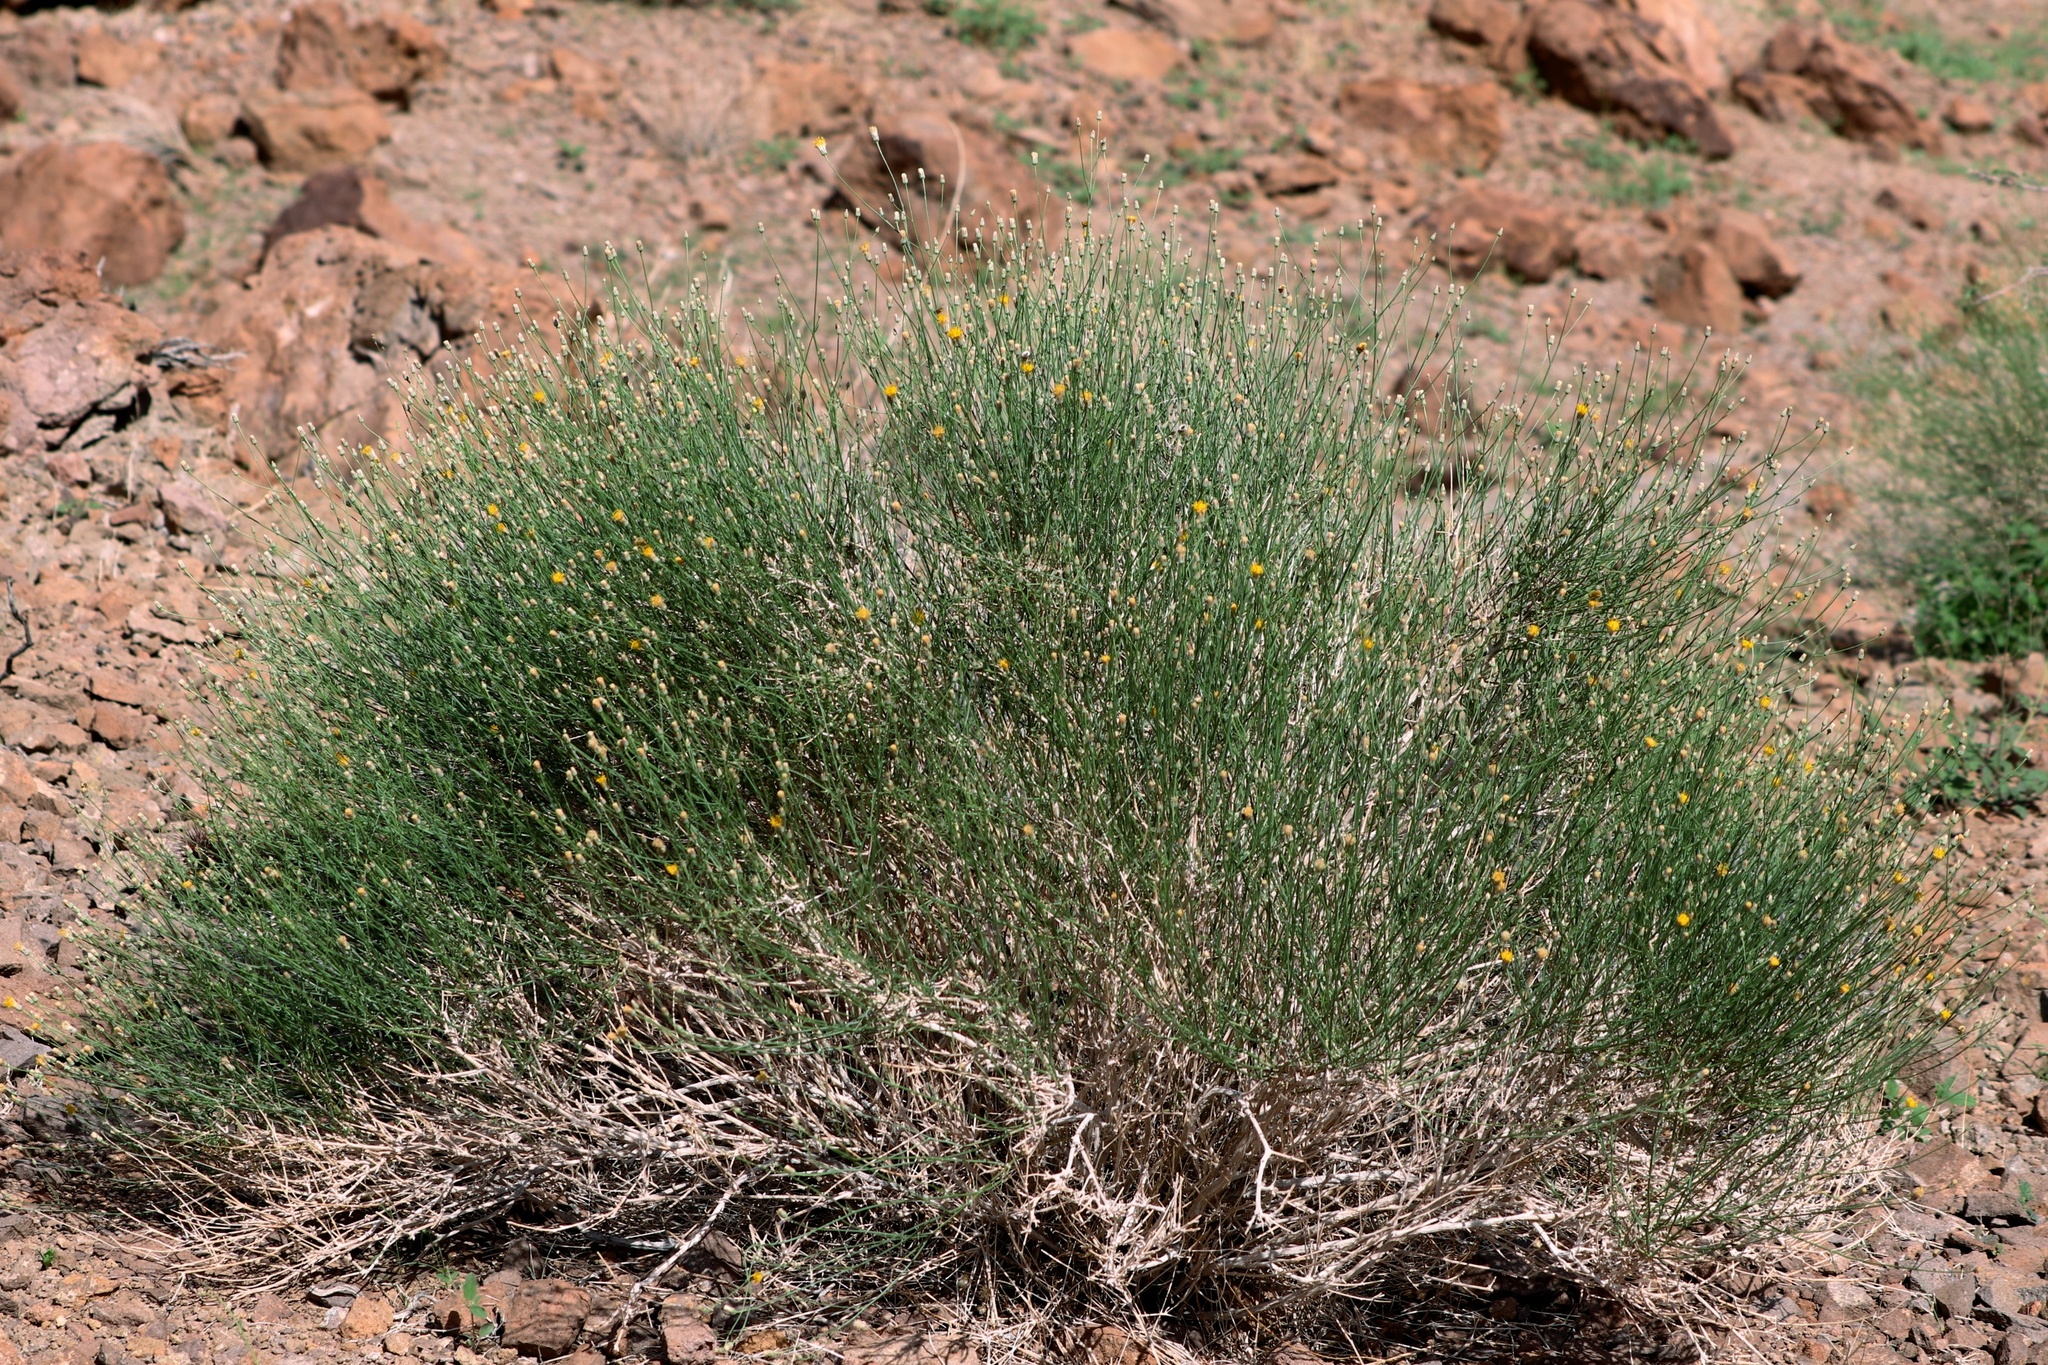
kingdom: Plantae
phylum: Tracheophyta
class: Magnoliopsida
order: Asterales
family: Asteraceae
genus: Bebbia
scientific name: Bebbia juncea
